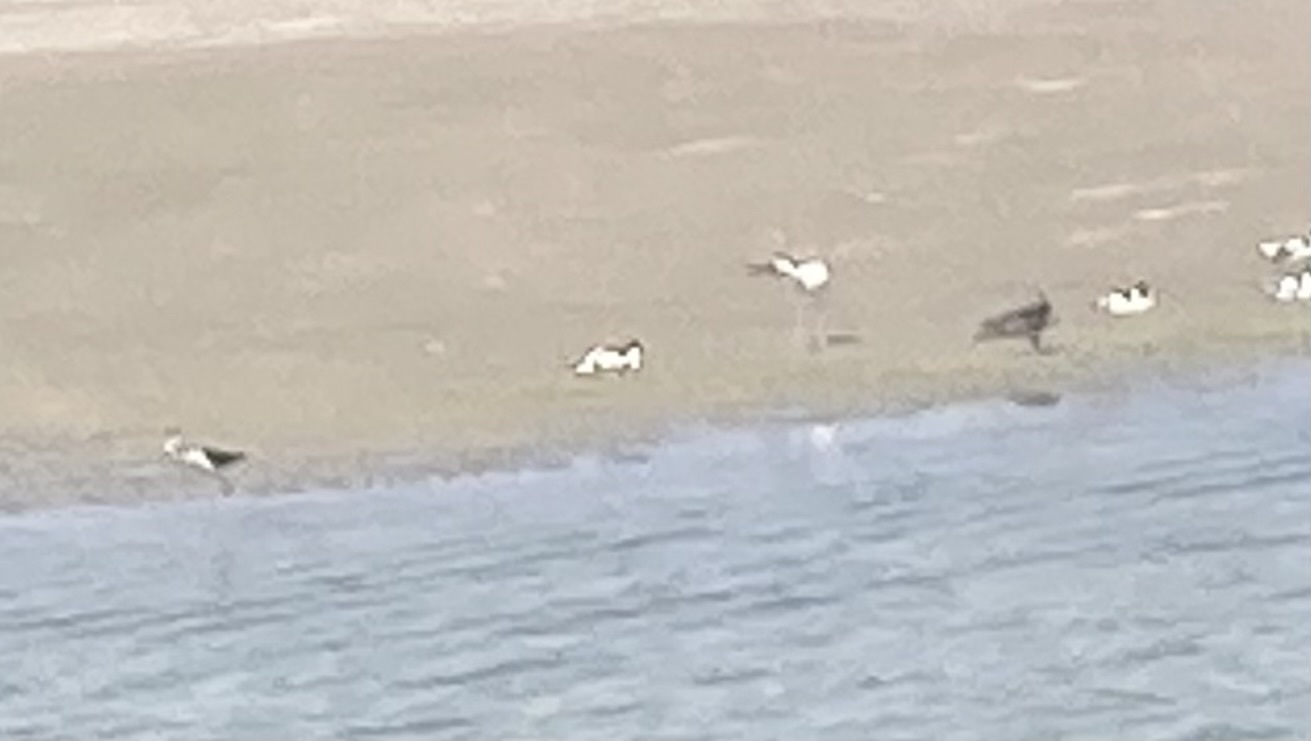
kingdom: Animalia
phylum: Chordata
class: Aves
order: Charadriiformes
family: Recurvirostridae
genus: Recurvirostra
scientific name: Recurvirostra avosetta
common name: Pied avocet
